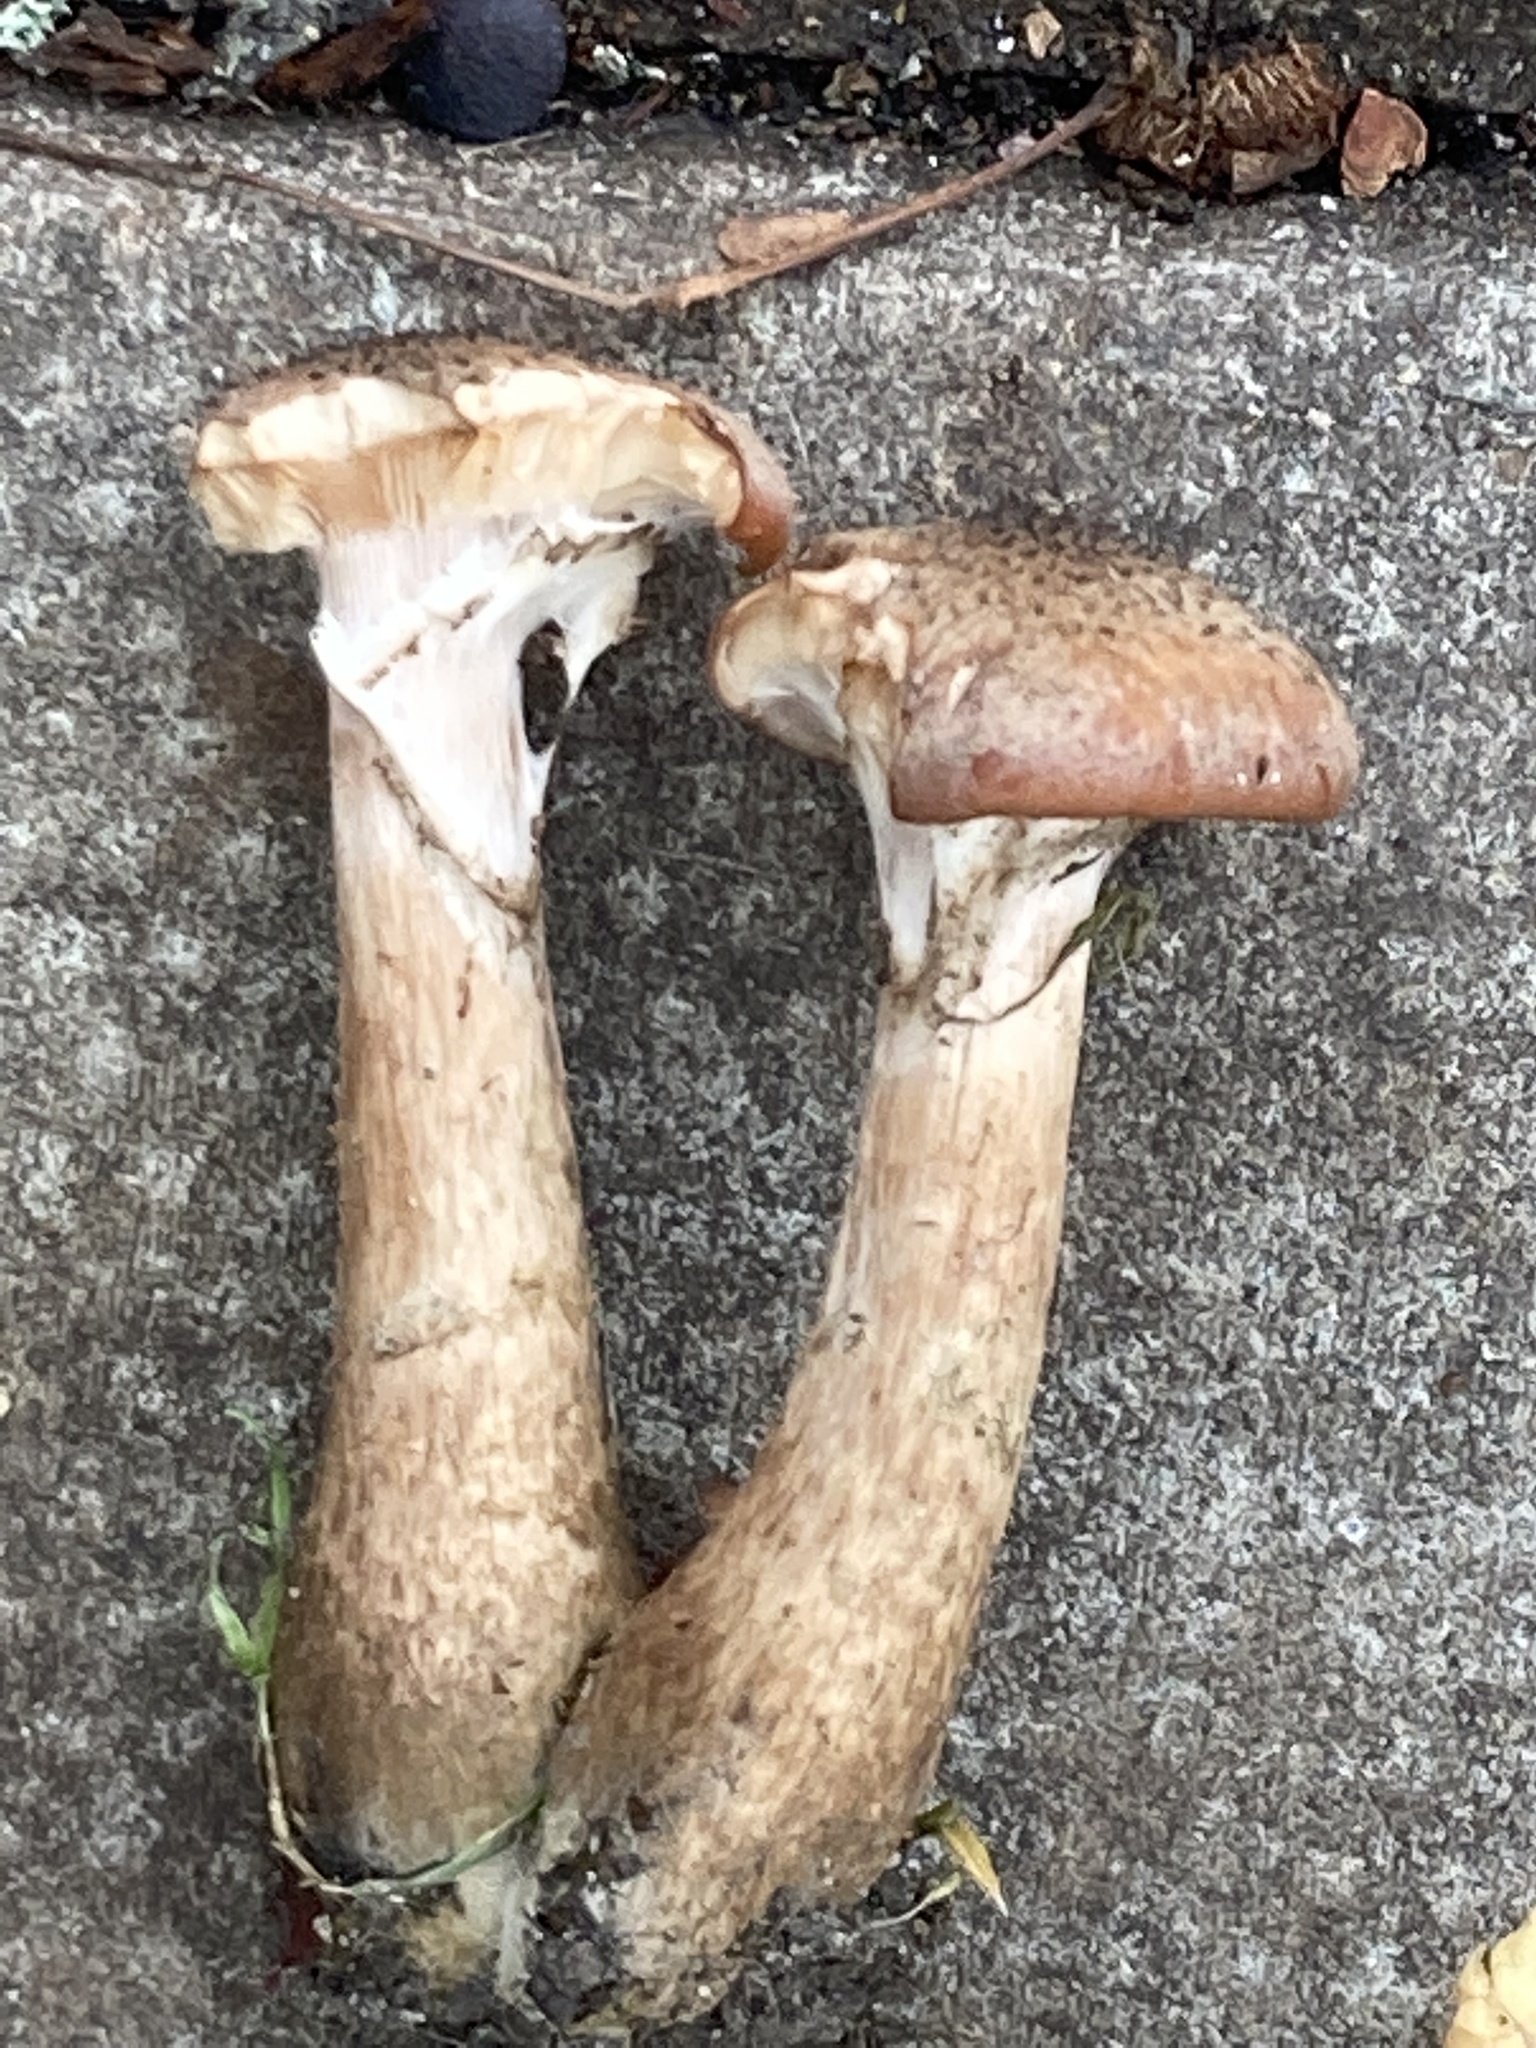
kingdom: Fungi
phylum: Basidiomycota
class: Agaricomycetes
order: Agaricales
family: Physalacriaceae
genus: Armillaria
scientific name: Armillaria gallica
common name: Bulbous honey fungus
